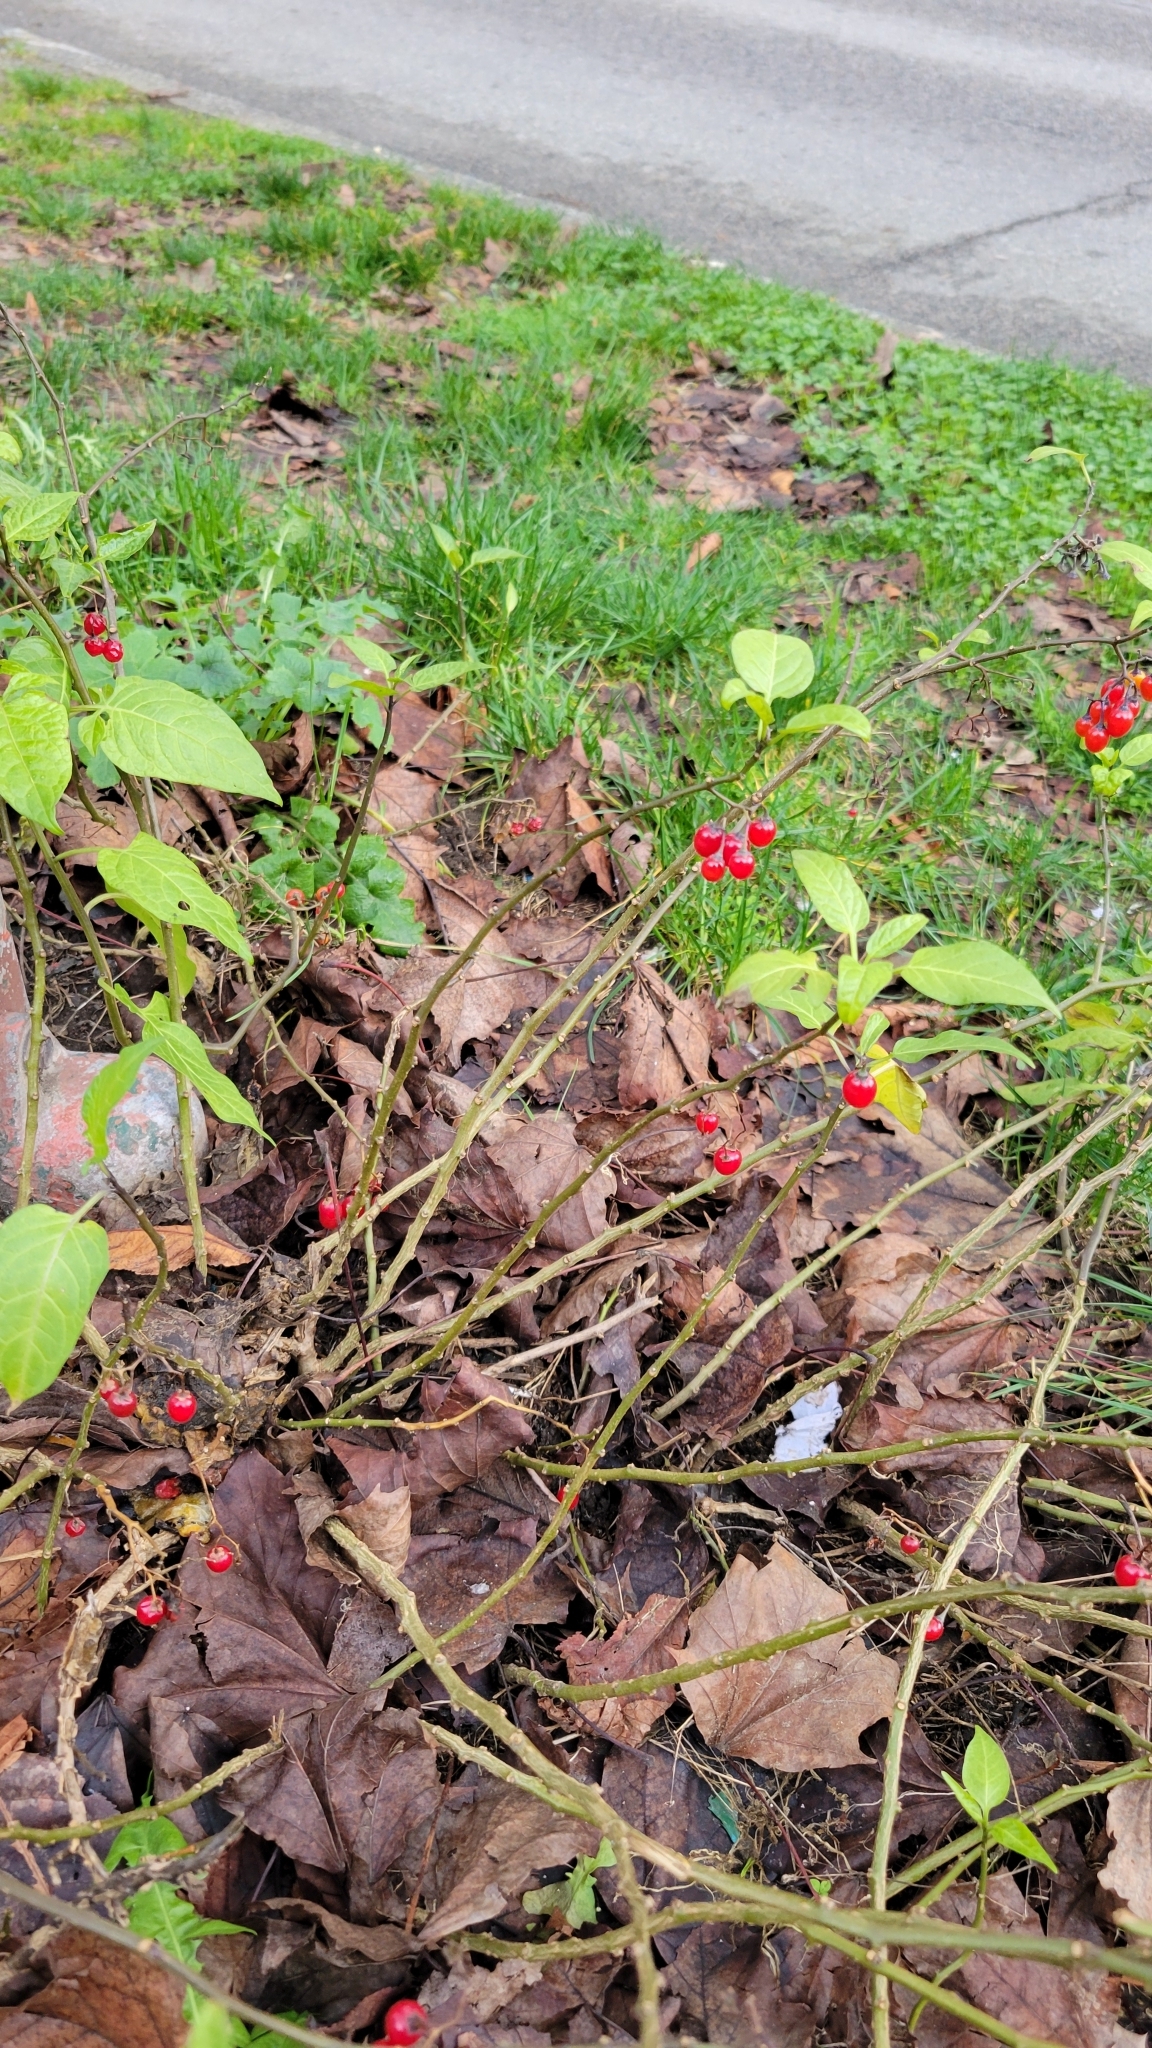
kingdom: Plantae
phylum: Tracheophyta
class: Magnoliopsida
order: Solanales
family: Solanaceae
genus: Solanum
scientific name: Solanum dulcamara
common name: Climbing nightshade
